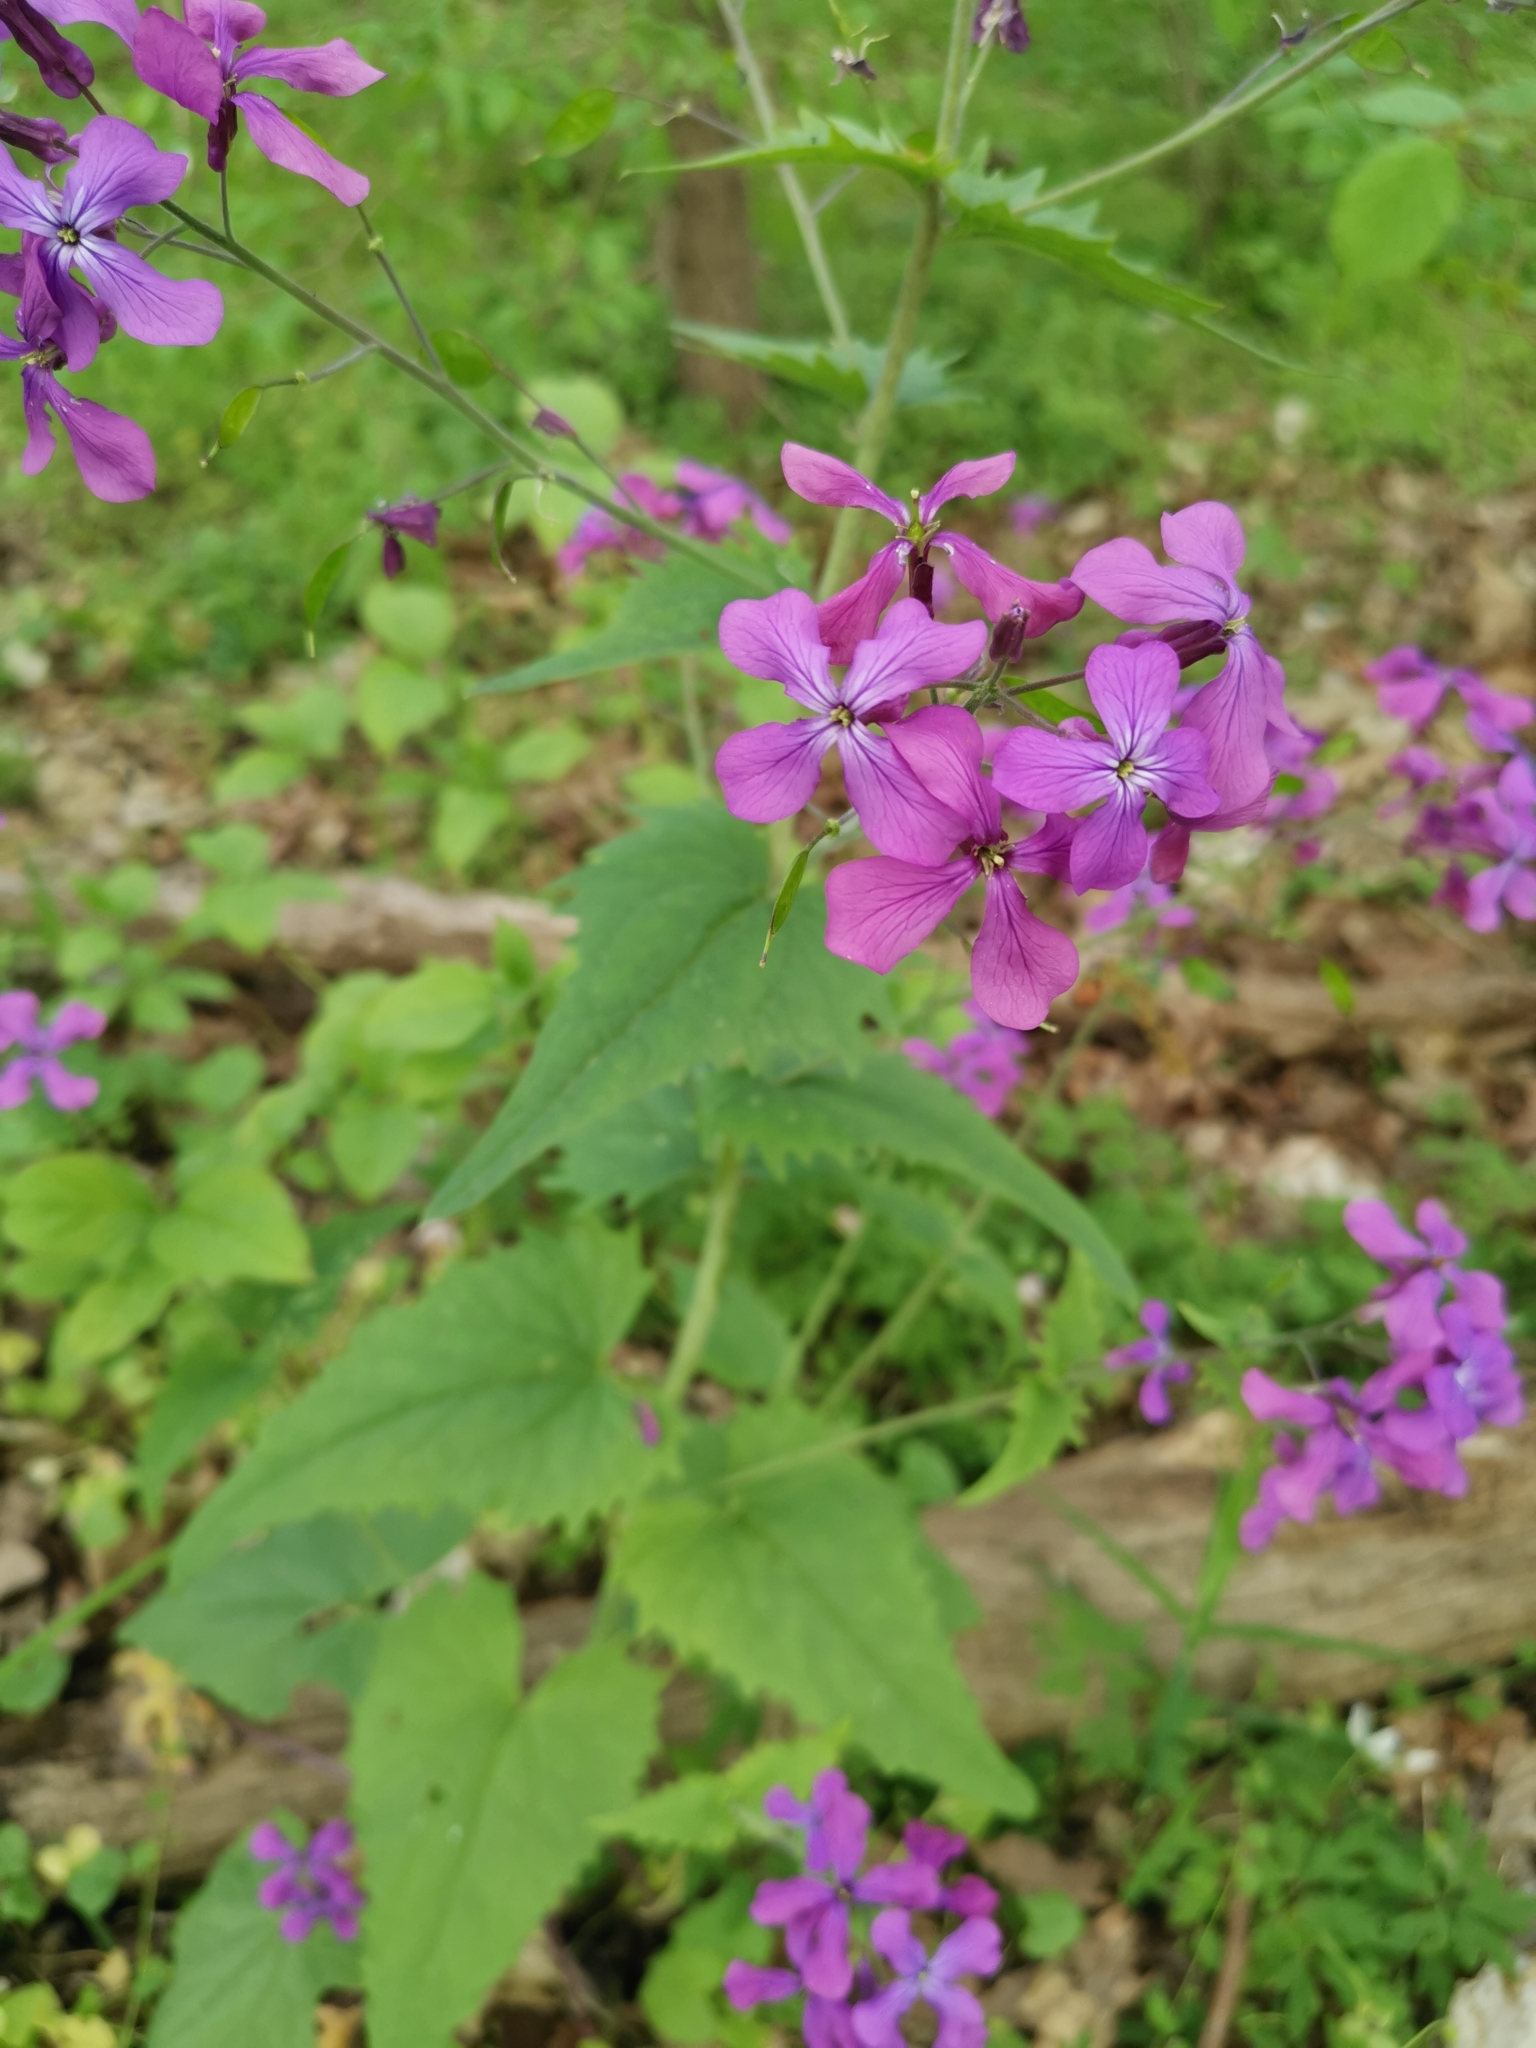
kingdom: Plantae
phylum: Tracheophyta
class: Magnoliopsida
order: Brassicales
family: Brassicaceae
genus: Lunaria
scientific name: Lunaria annua
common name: Honesty
